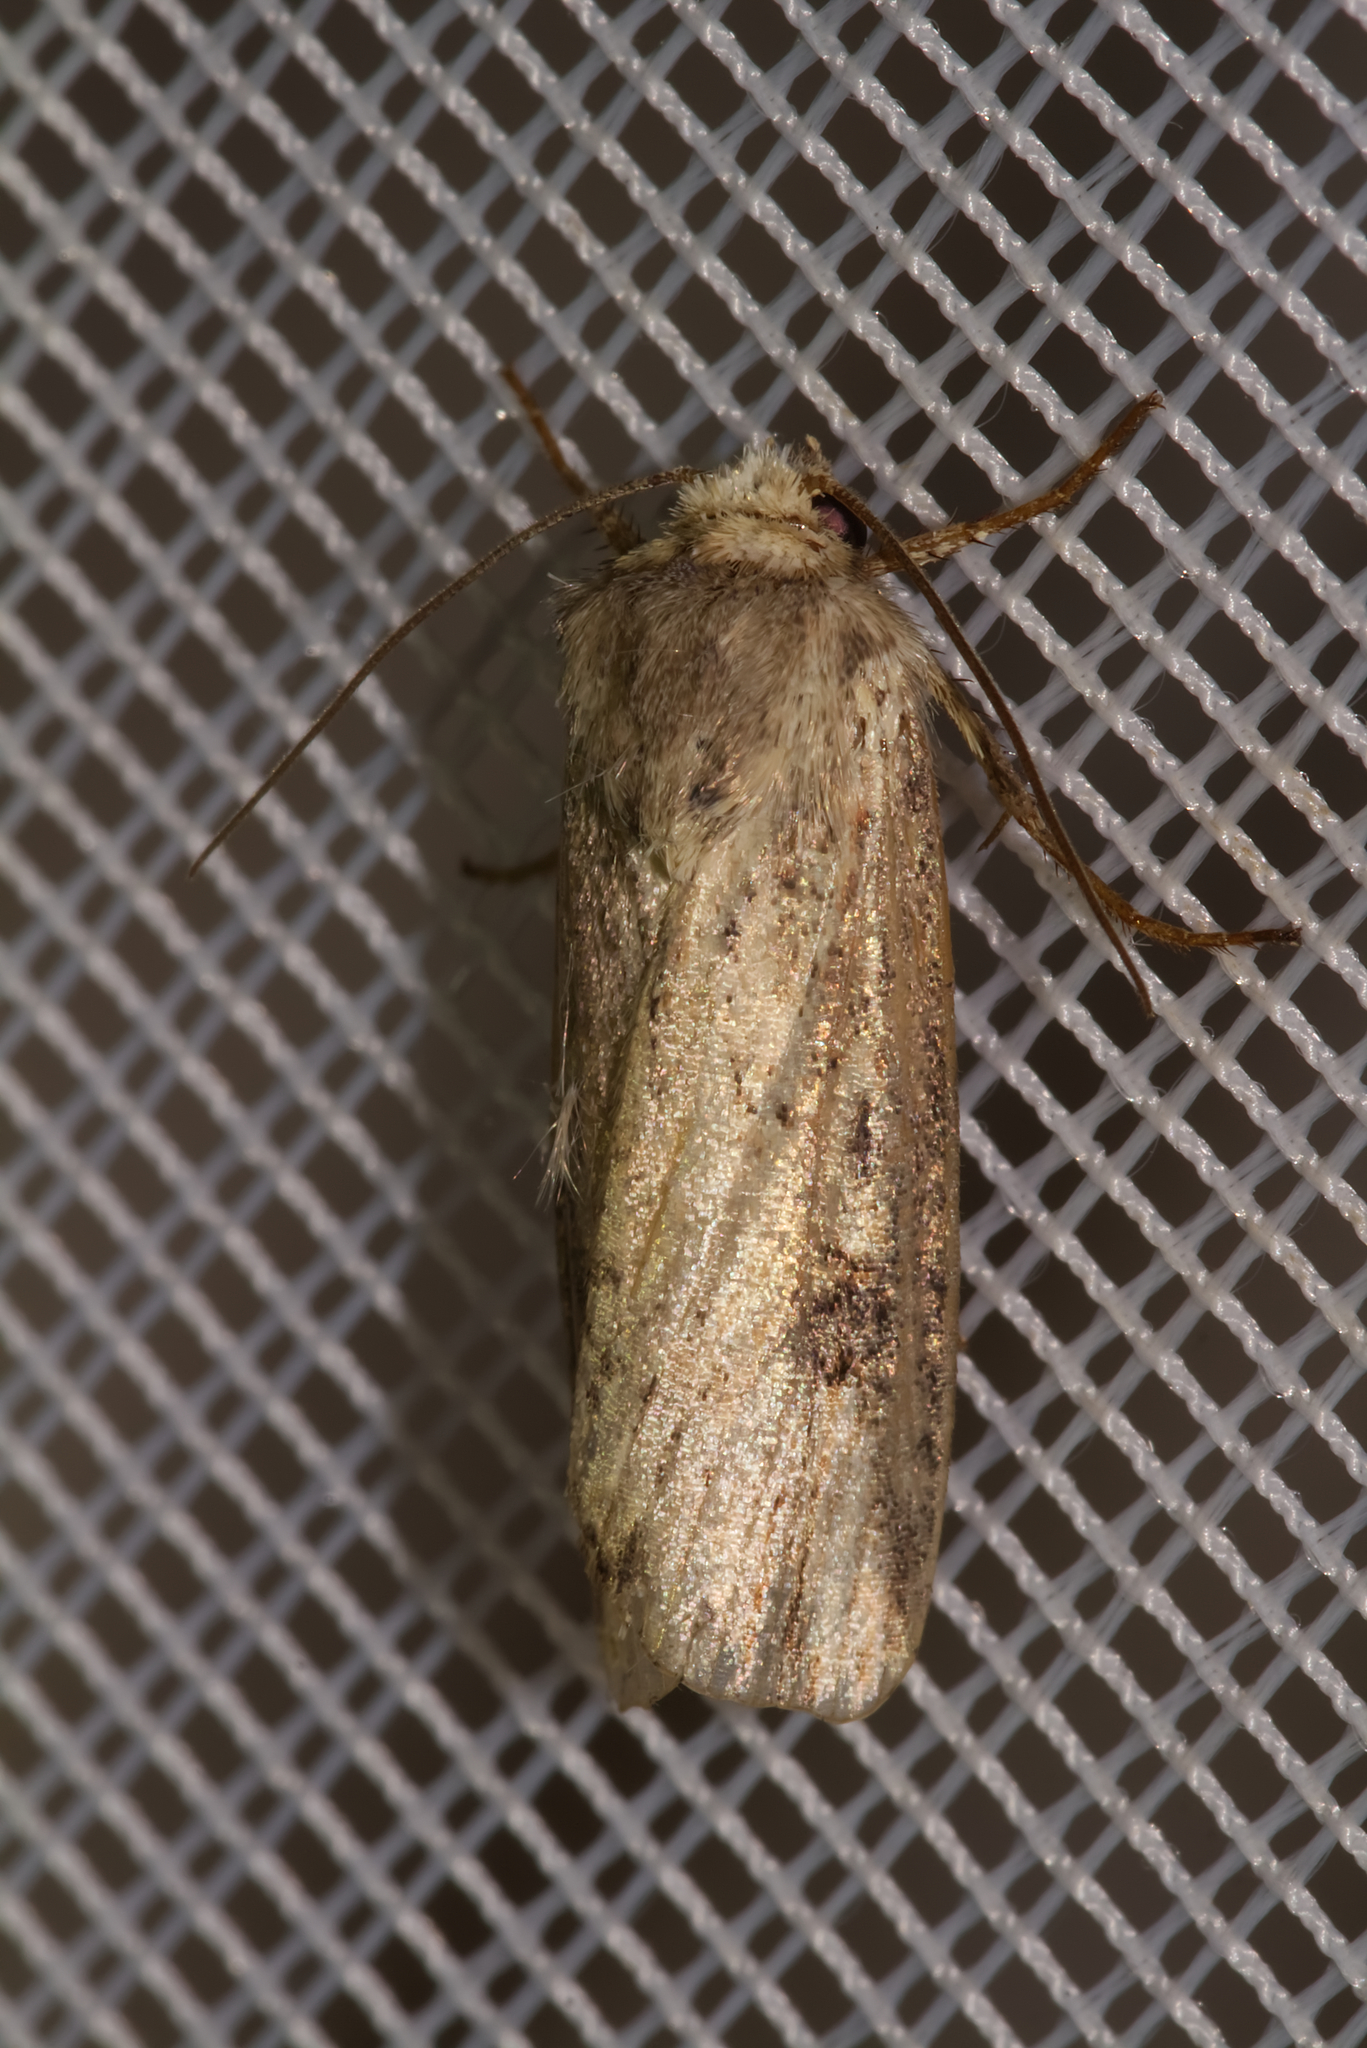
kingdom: Animalia
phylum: Arthropoda
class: Insecta
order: Lepidoptera
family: Noctuidae
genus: Axylia
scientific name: Axylia putris
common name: Flame
